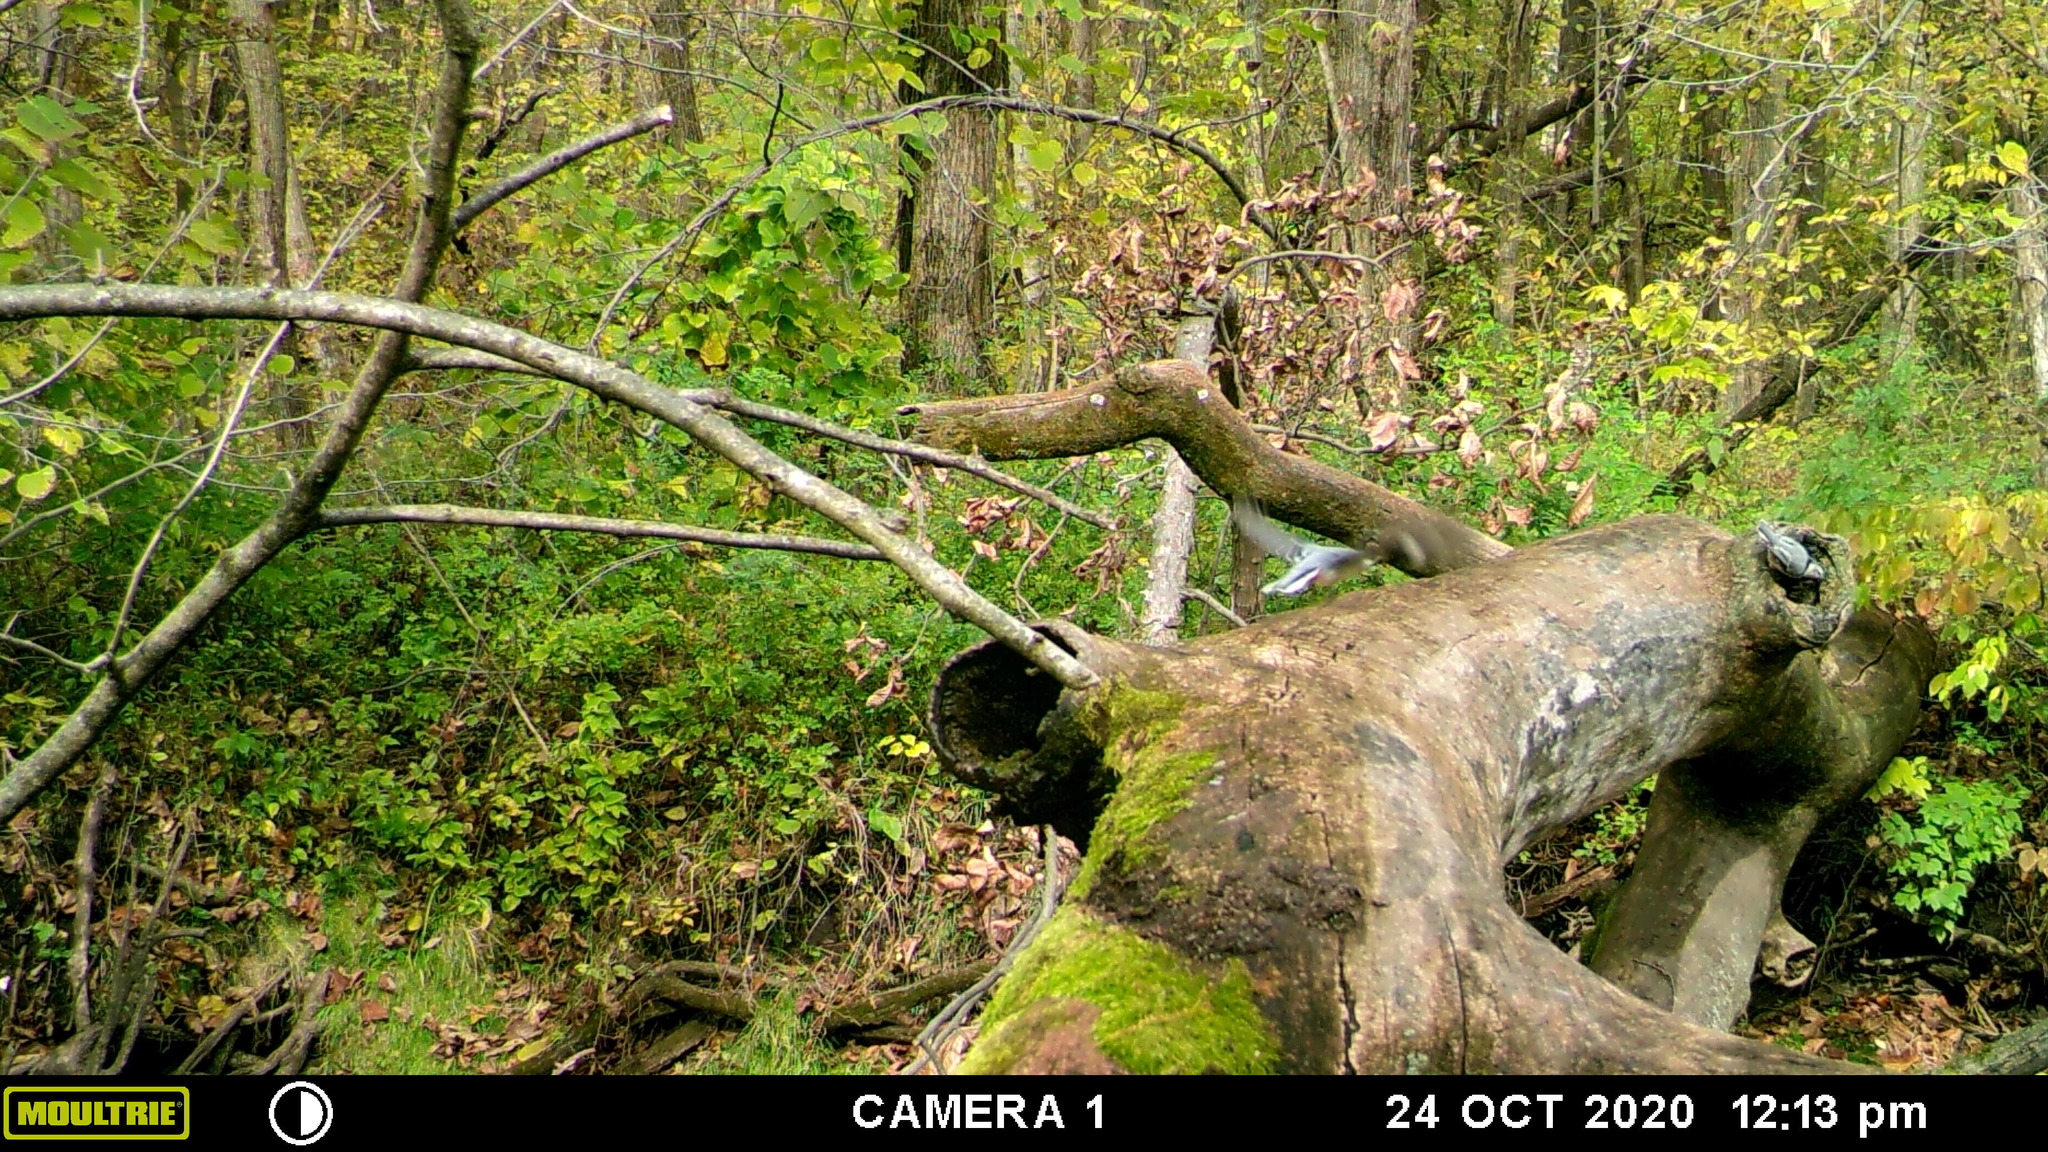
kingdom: Animalia
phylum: Chordata
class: Aves
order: Passeriformes
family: Sittidae
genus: Sitta
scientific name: Sitta carolinensis
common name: White-breasted nuthatch
